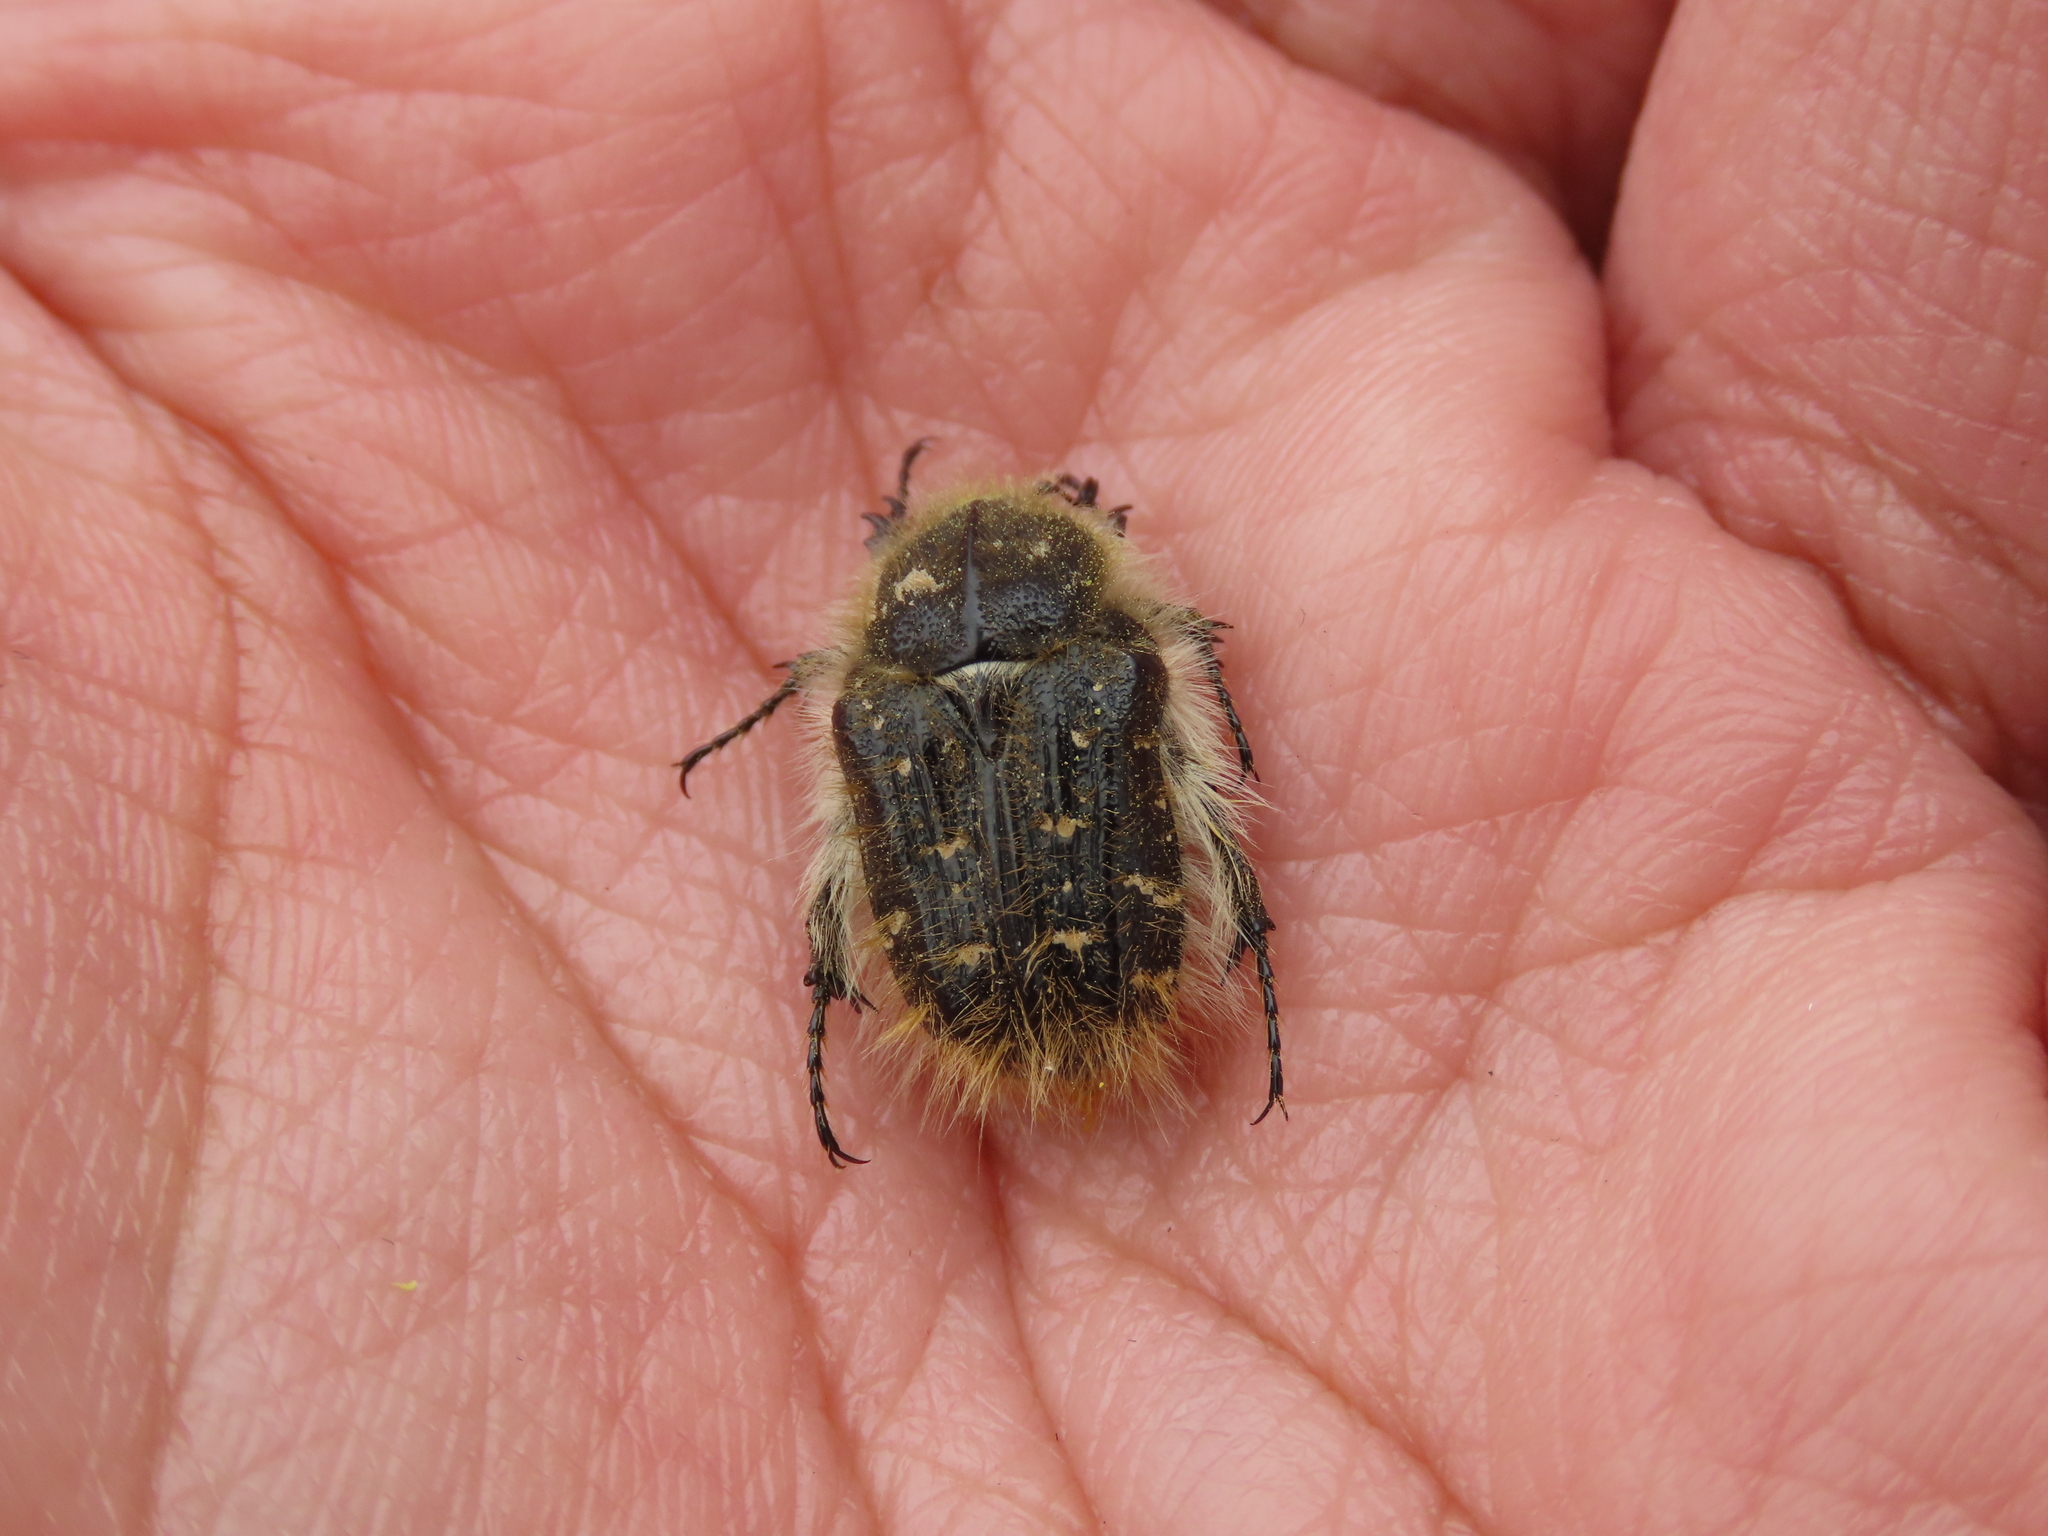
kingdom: Animalia
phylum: Arthropoda
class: Insecta
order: Coleoptera
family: Scarabaeidae
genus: Tropinota
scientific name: Tropinota squalida
